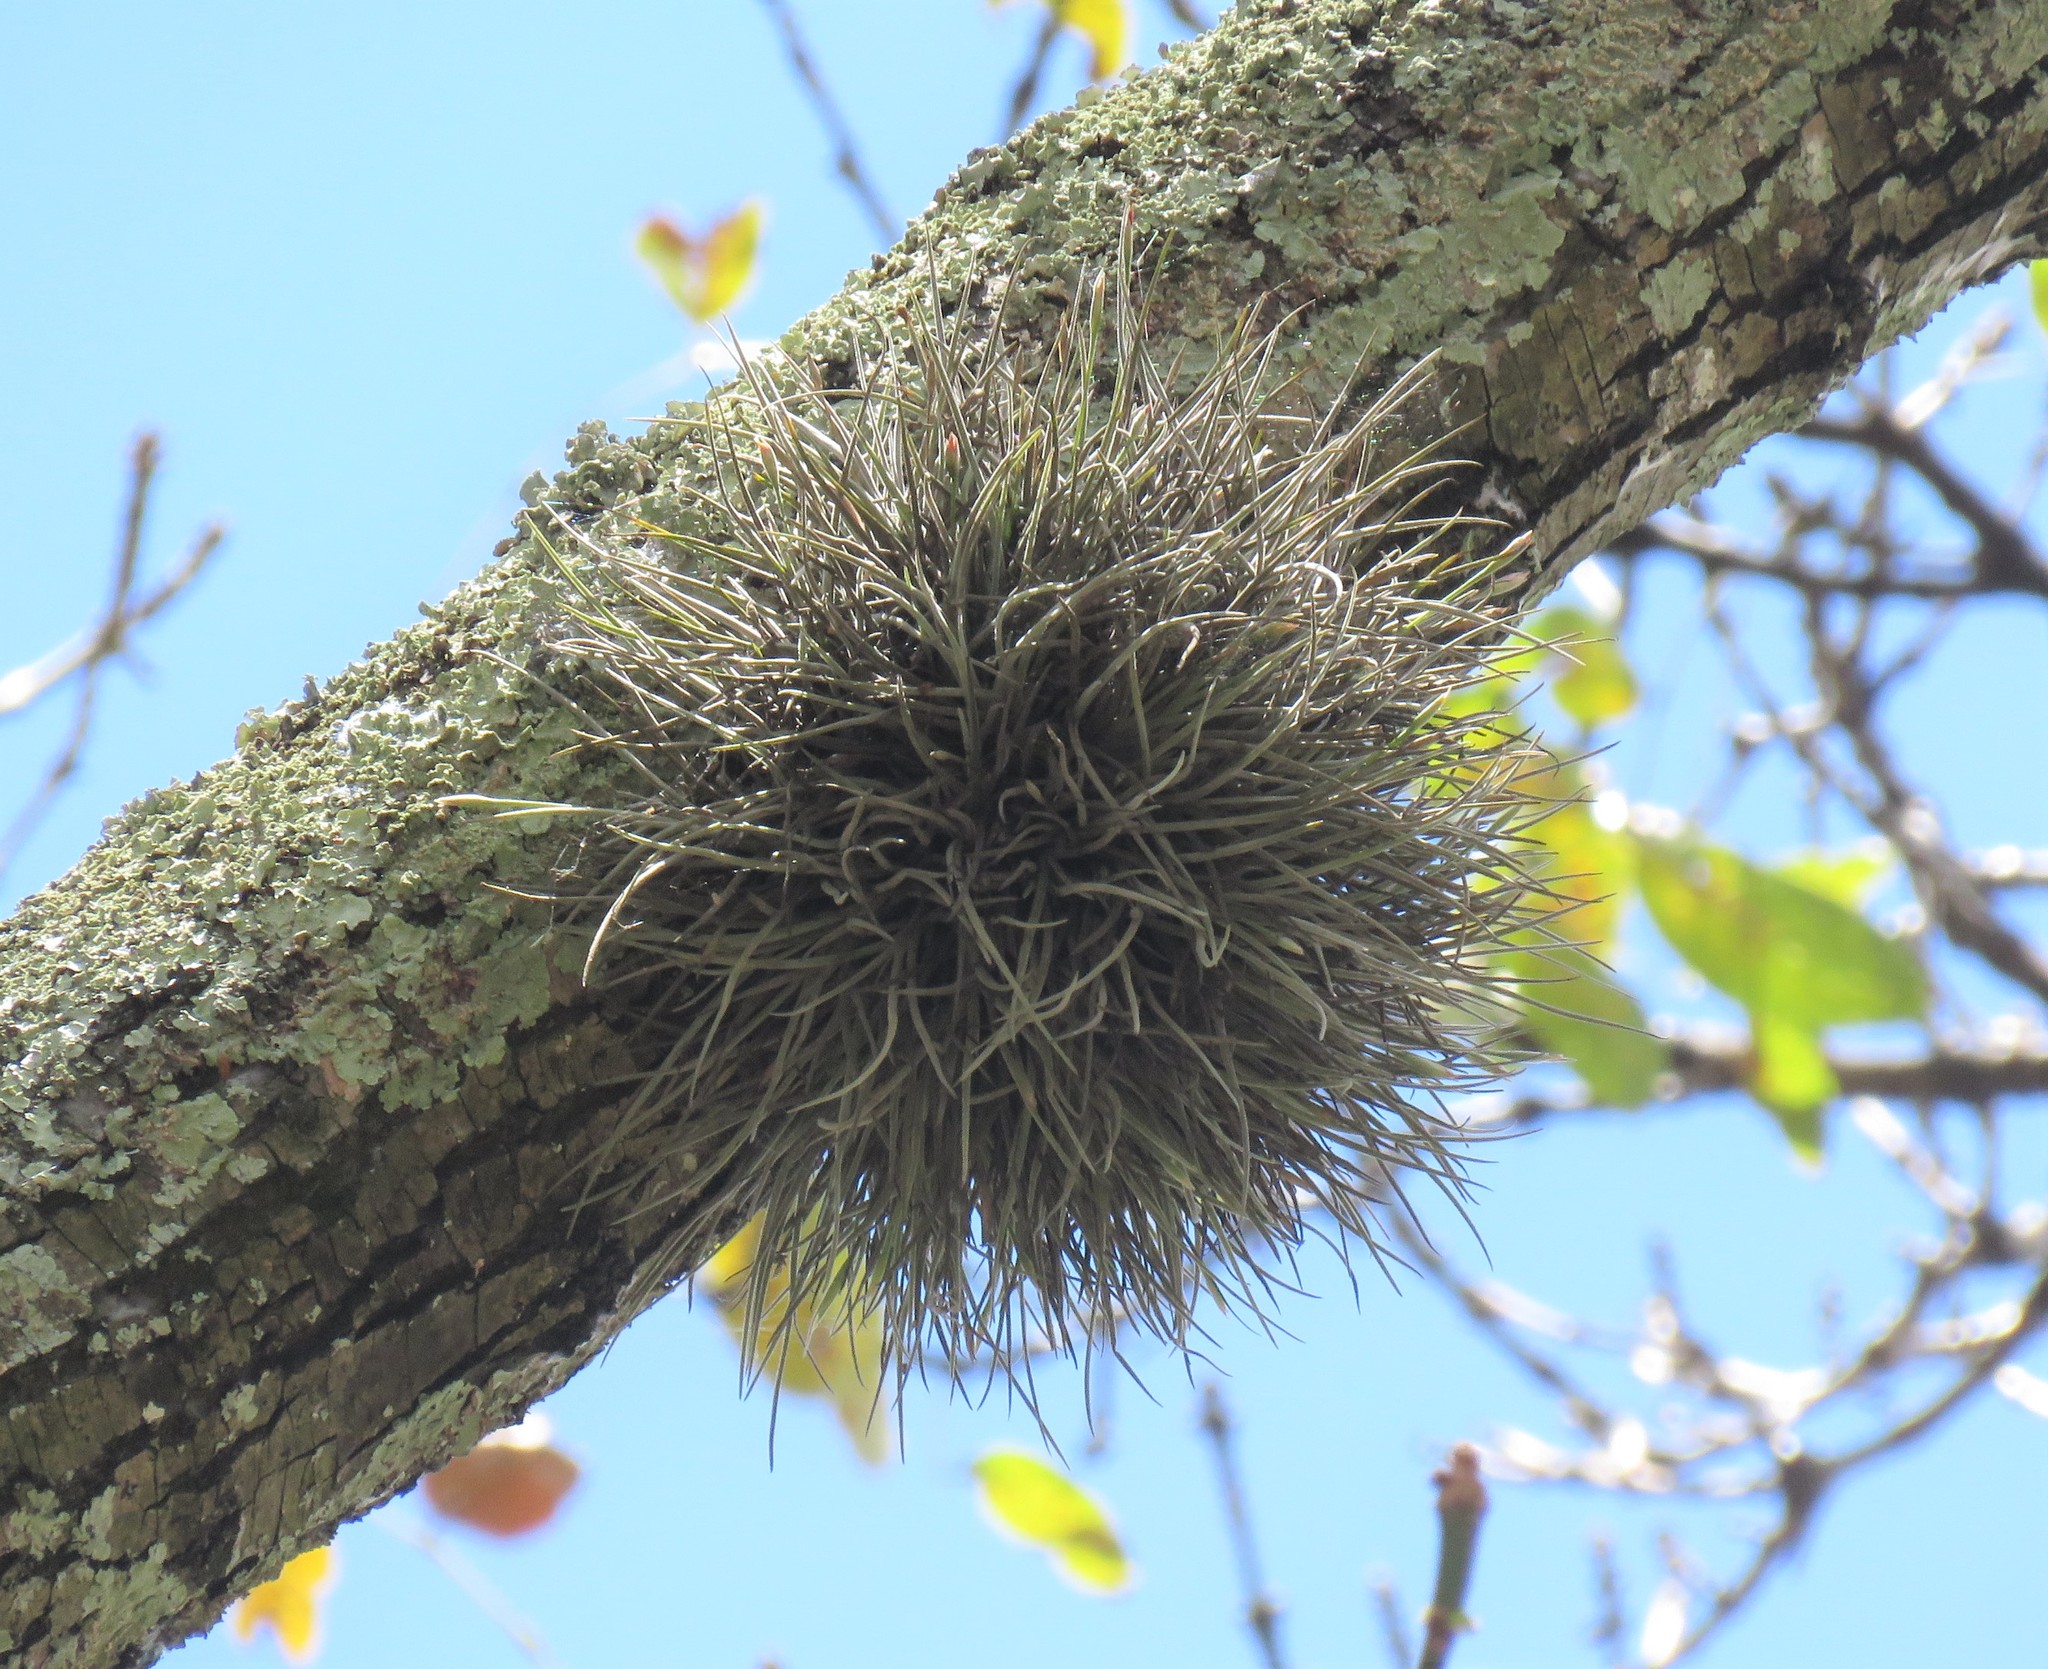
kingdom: Plantae
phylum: Tracheophyta
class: Liliopsida
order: Poales
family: Bromeliaceae
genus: Tillandsia
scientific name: Tillandsia recurvata
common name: Small ballmoss
